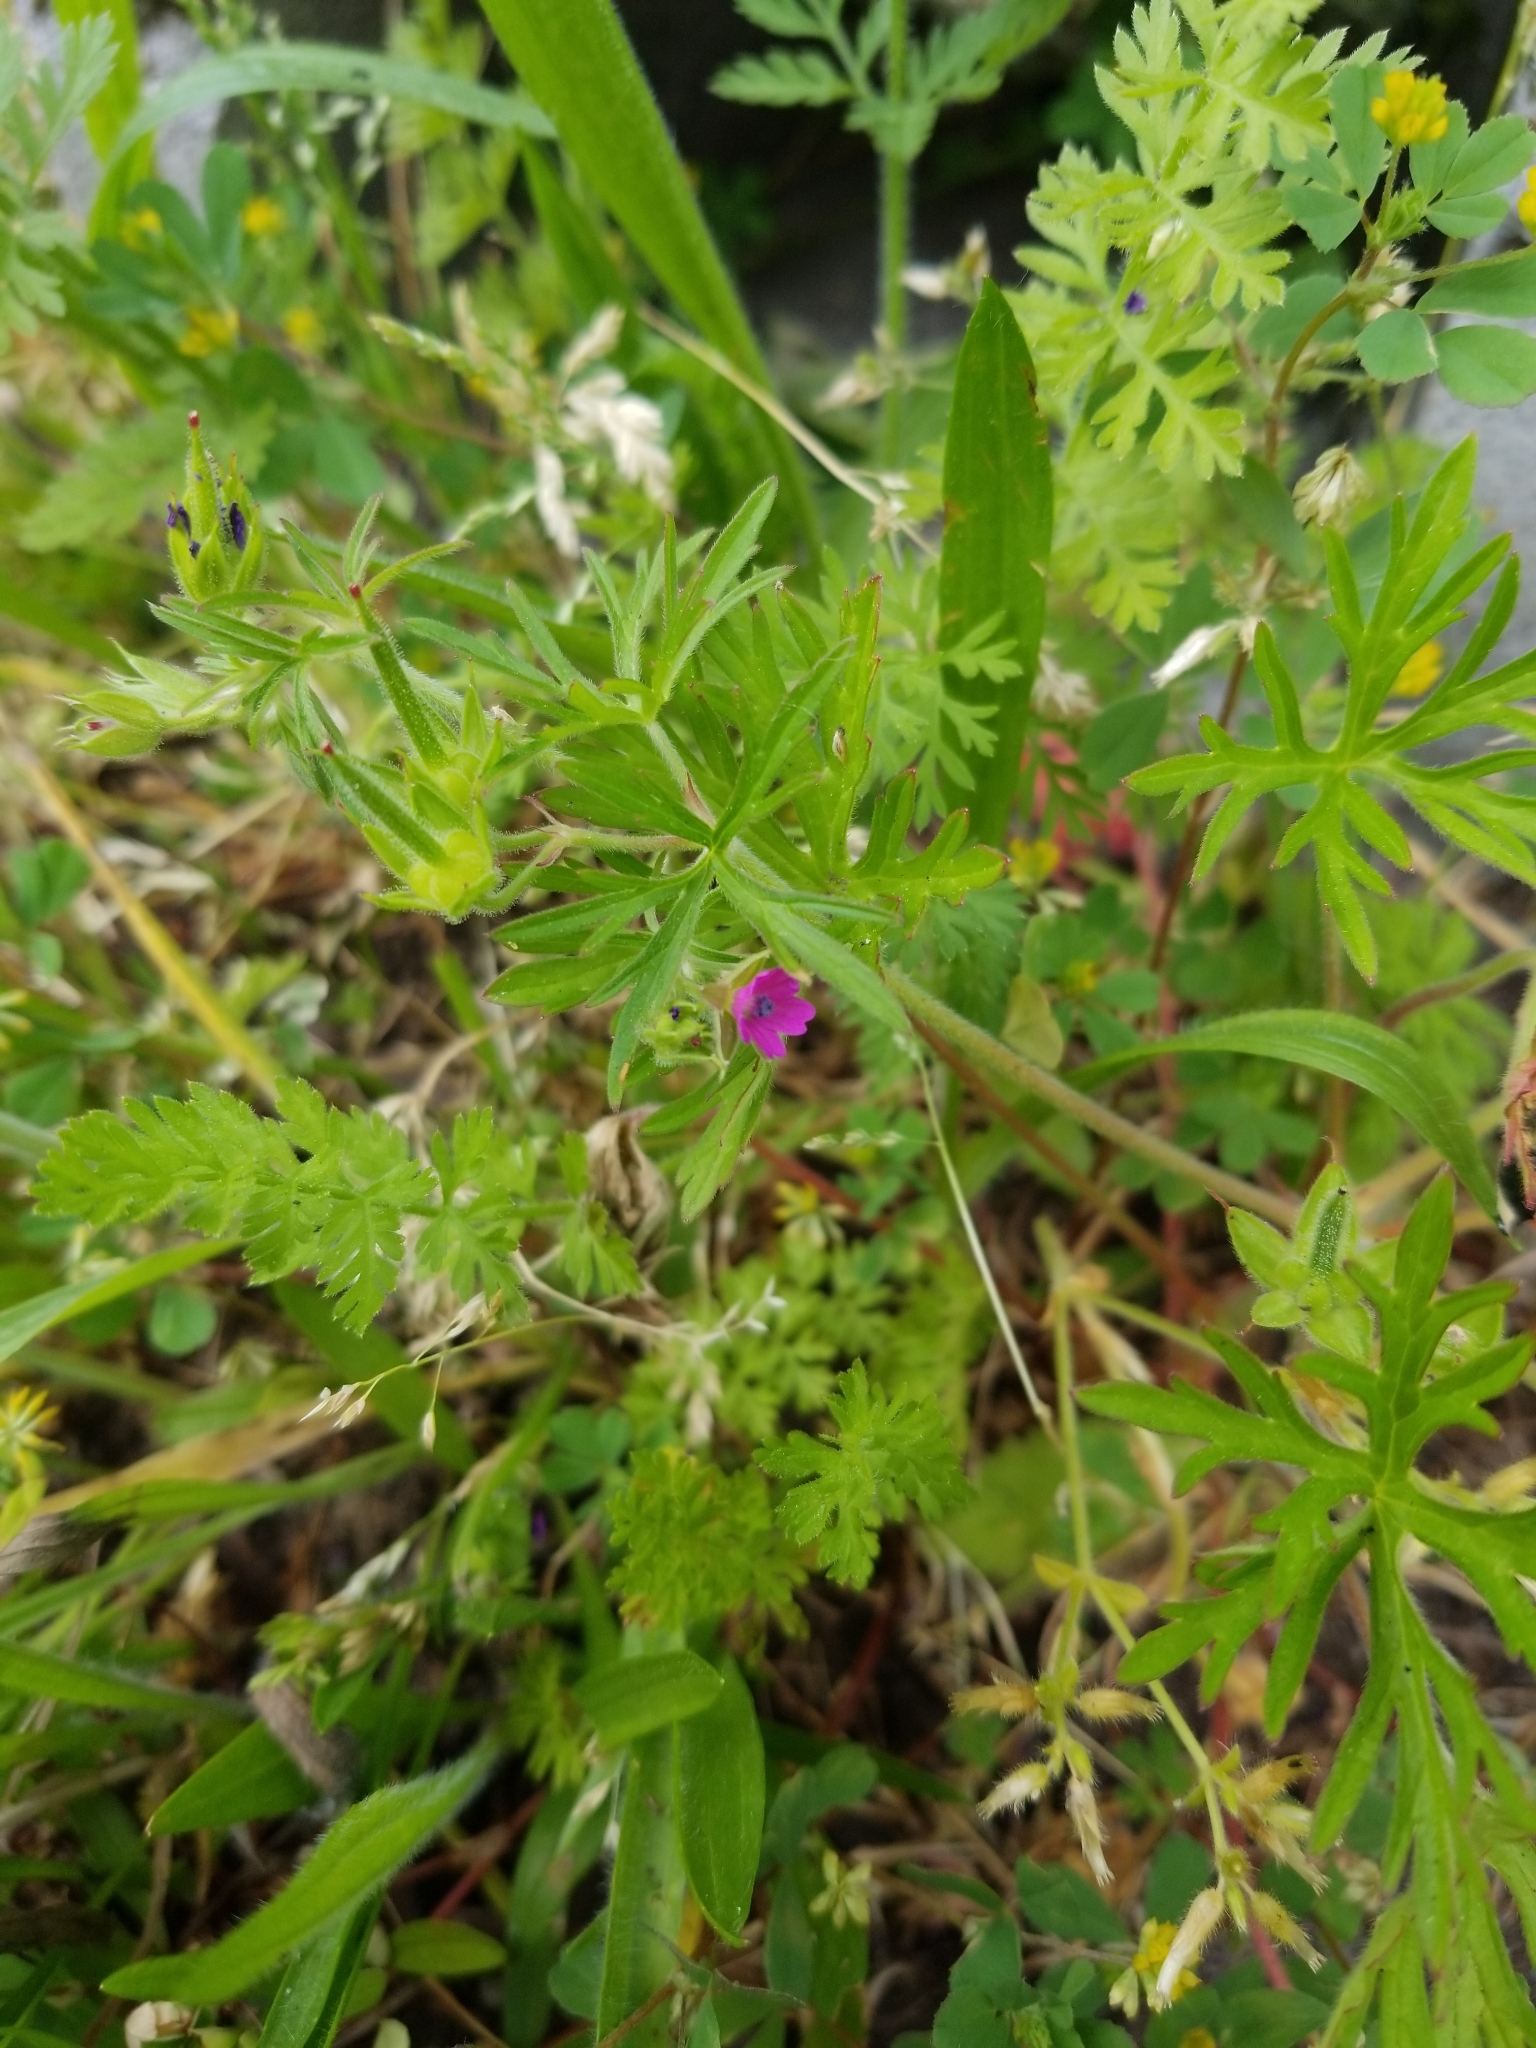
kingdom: Plantae
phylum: Tracheophyta
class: Magnoliopsida
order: Geraniales
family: Geraniaceae
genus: Geranium
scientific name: Geranium dissectum
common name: Cut-leaved crane's-bill
